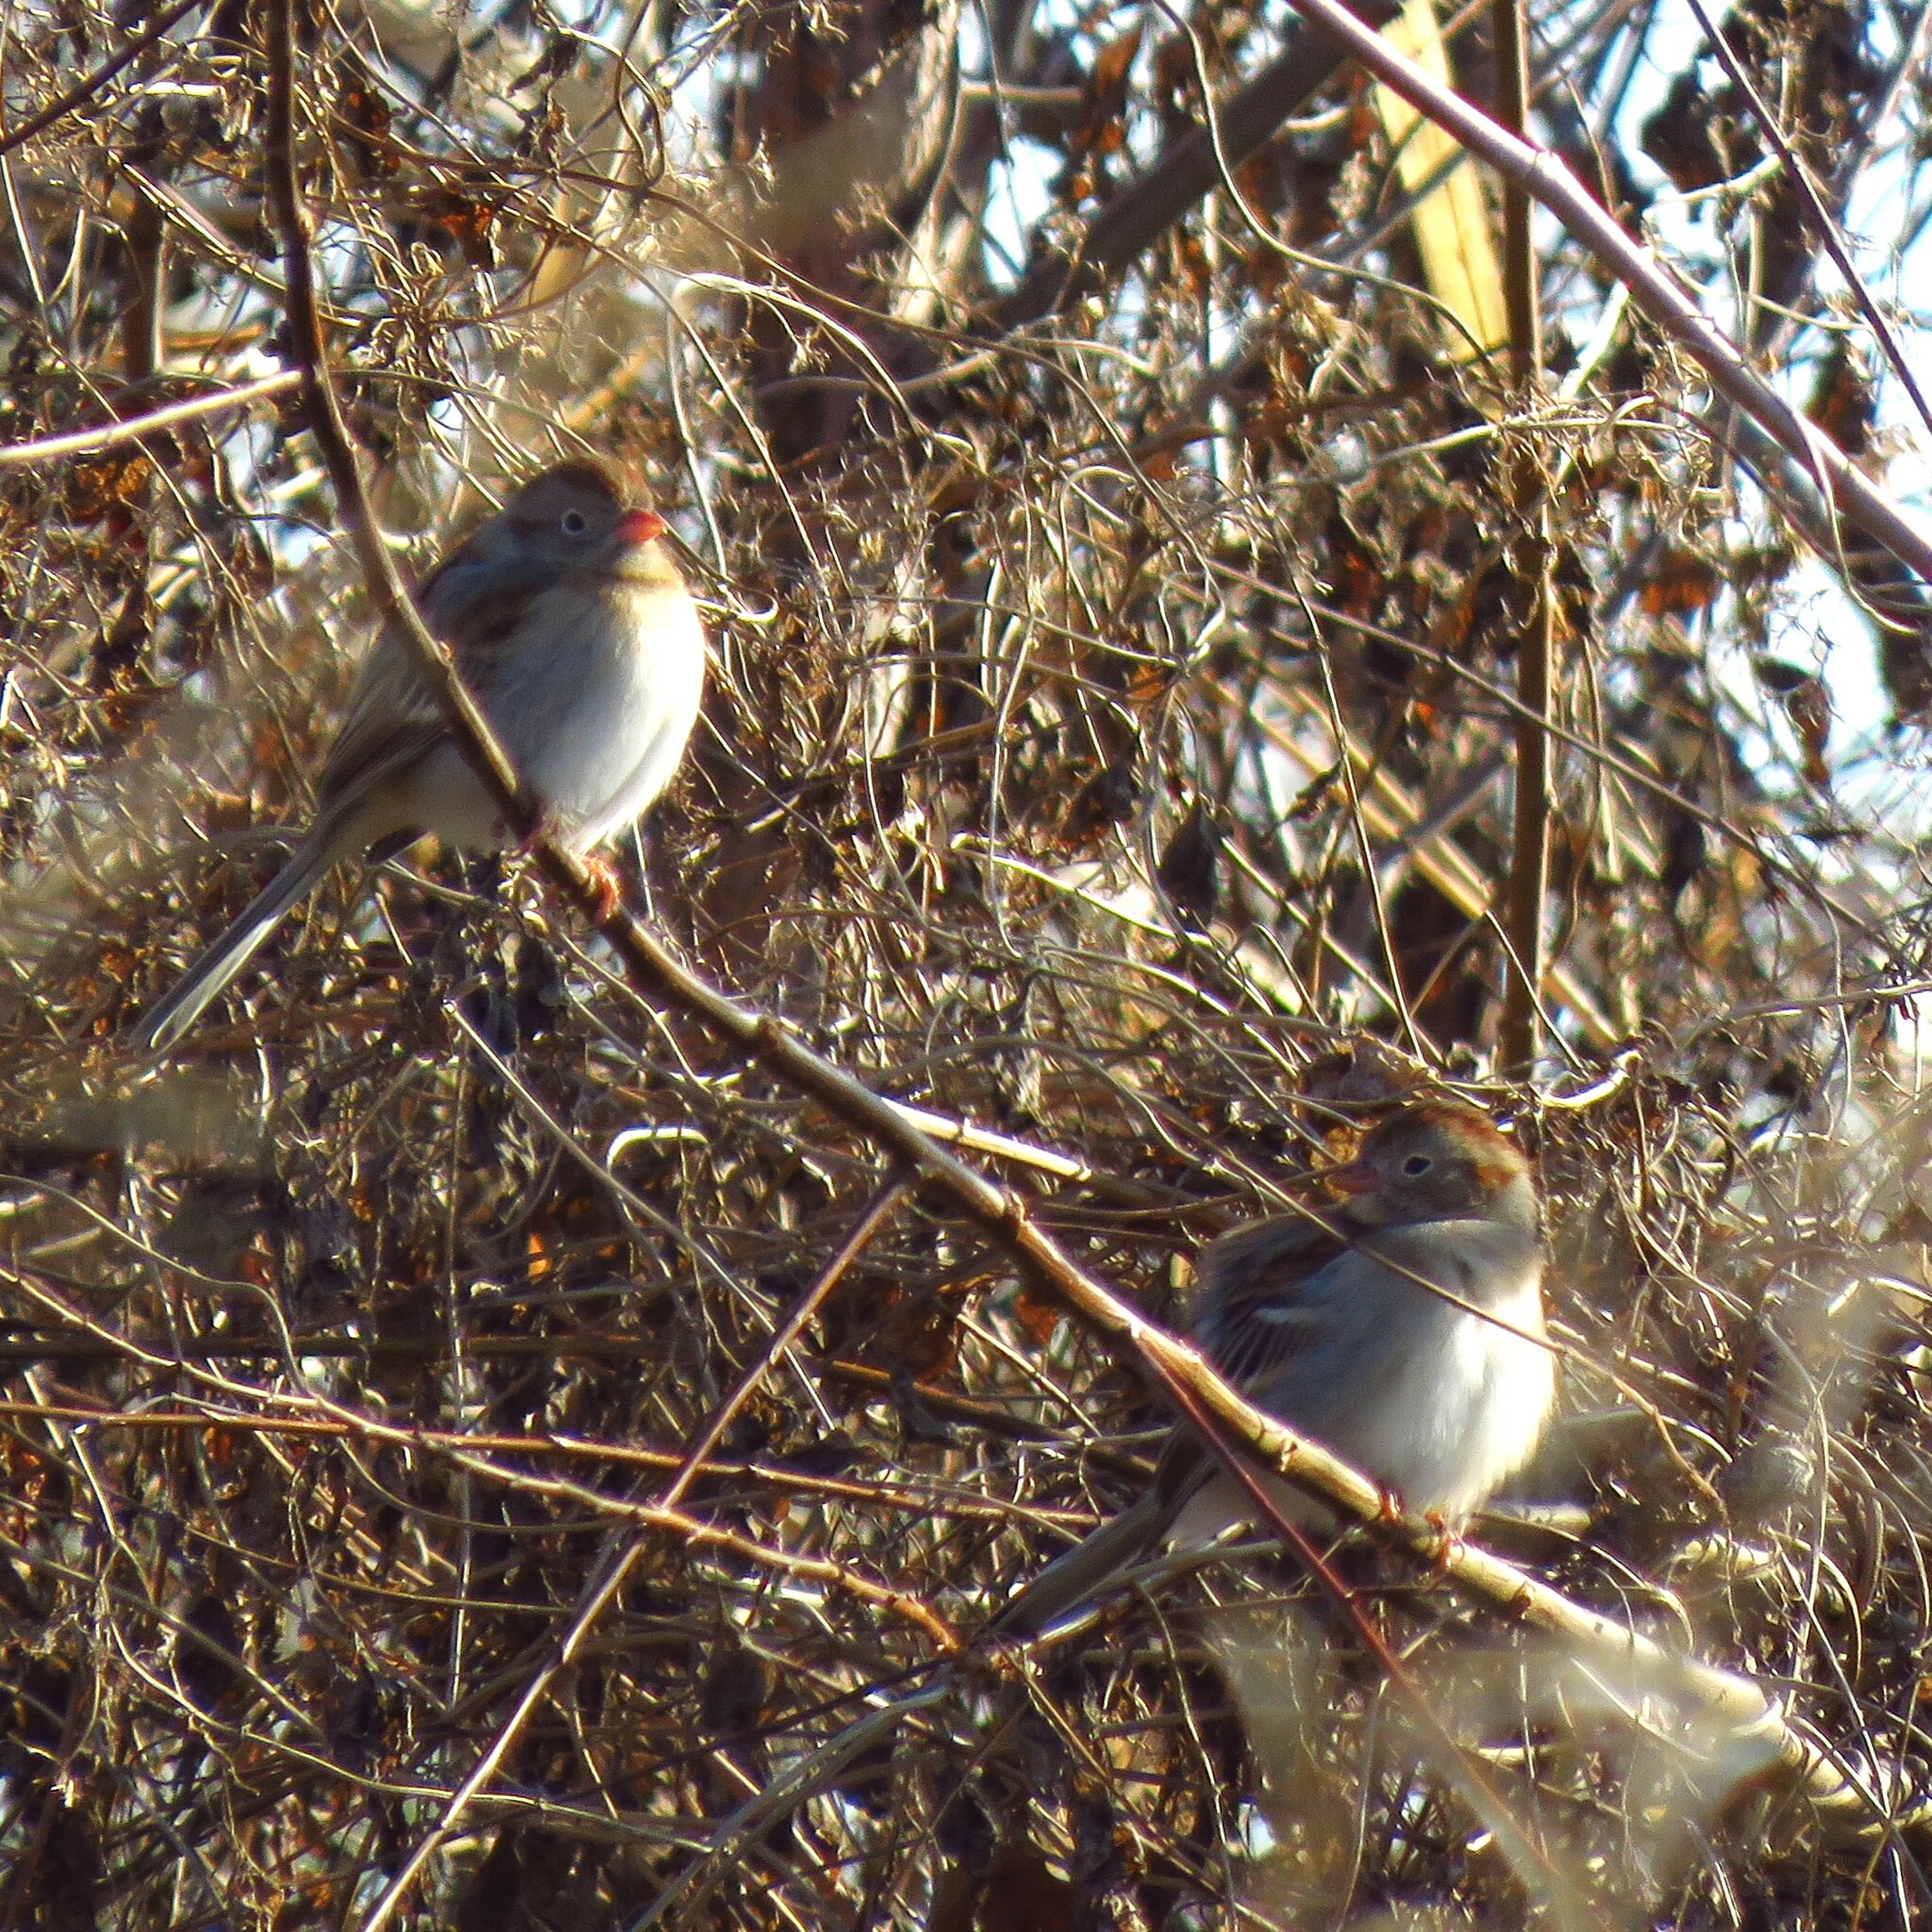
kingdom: Animalia
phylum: Chordata
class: Aves
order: Passeriformes
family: Passerellidae
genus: Spizella
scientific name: Spizella pusilla
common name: Field sparrow
